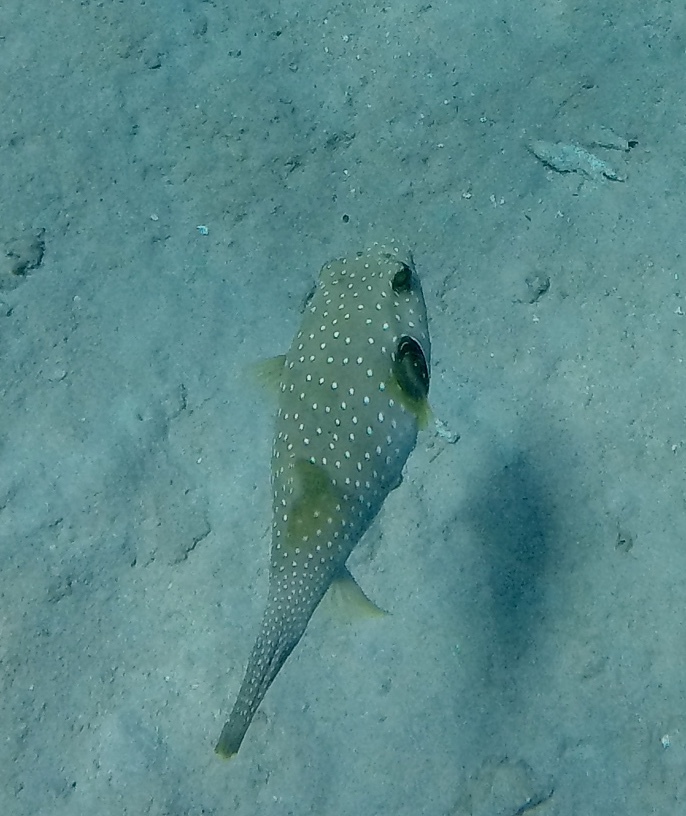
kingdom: Animalia
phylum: Chordata
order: Tetraodontiformes
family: Tetraodontidae
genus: Arothron
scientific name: Arothron hispidus
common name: Stripebelly puffer
